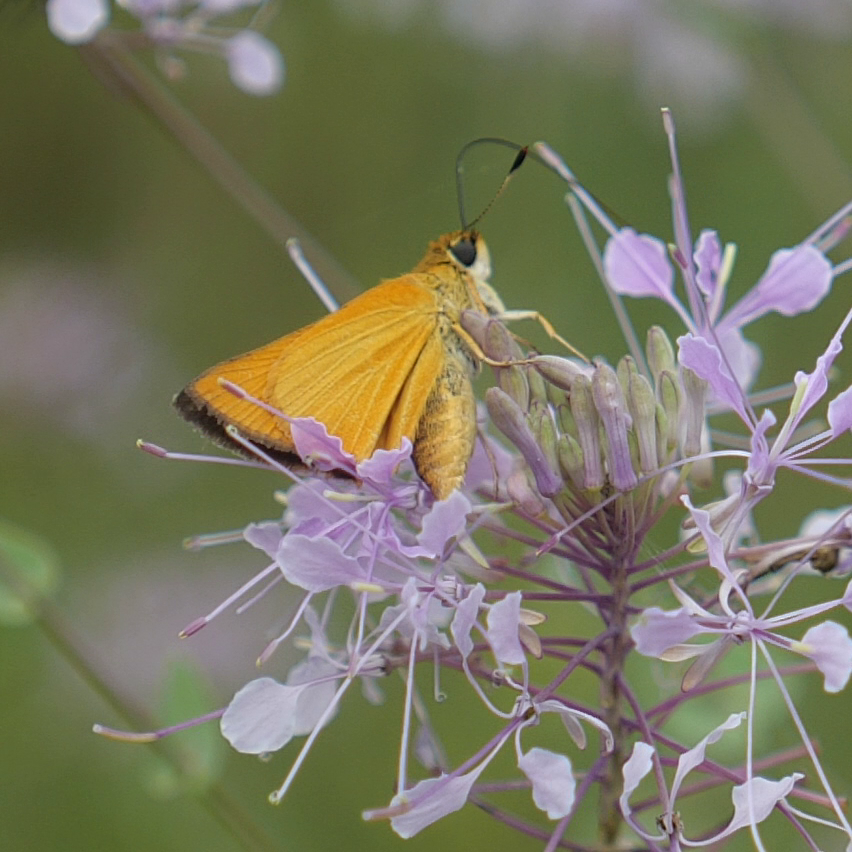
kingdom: Animalia
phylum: Arthropoda
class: Insecta
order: Lepidoptera
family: Hesperiidae
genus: Atrytone
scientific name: Atrytone delaware
